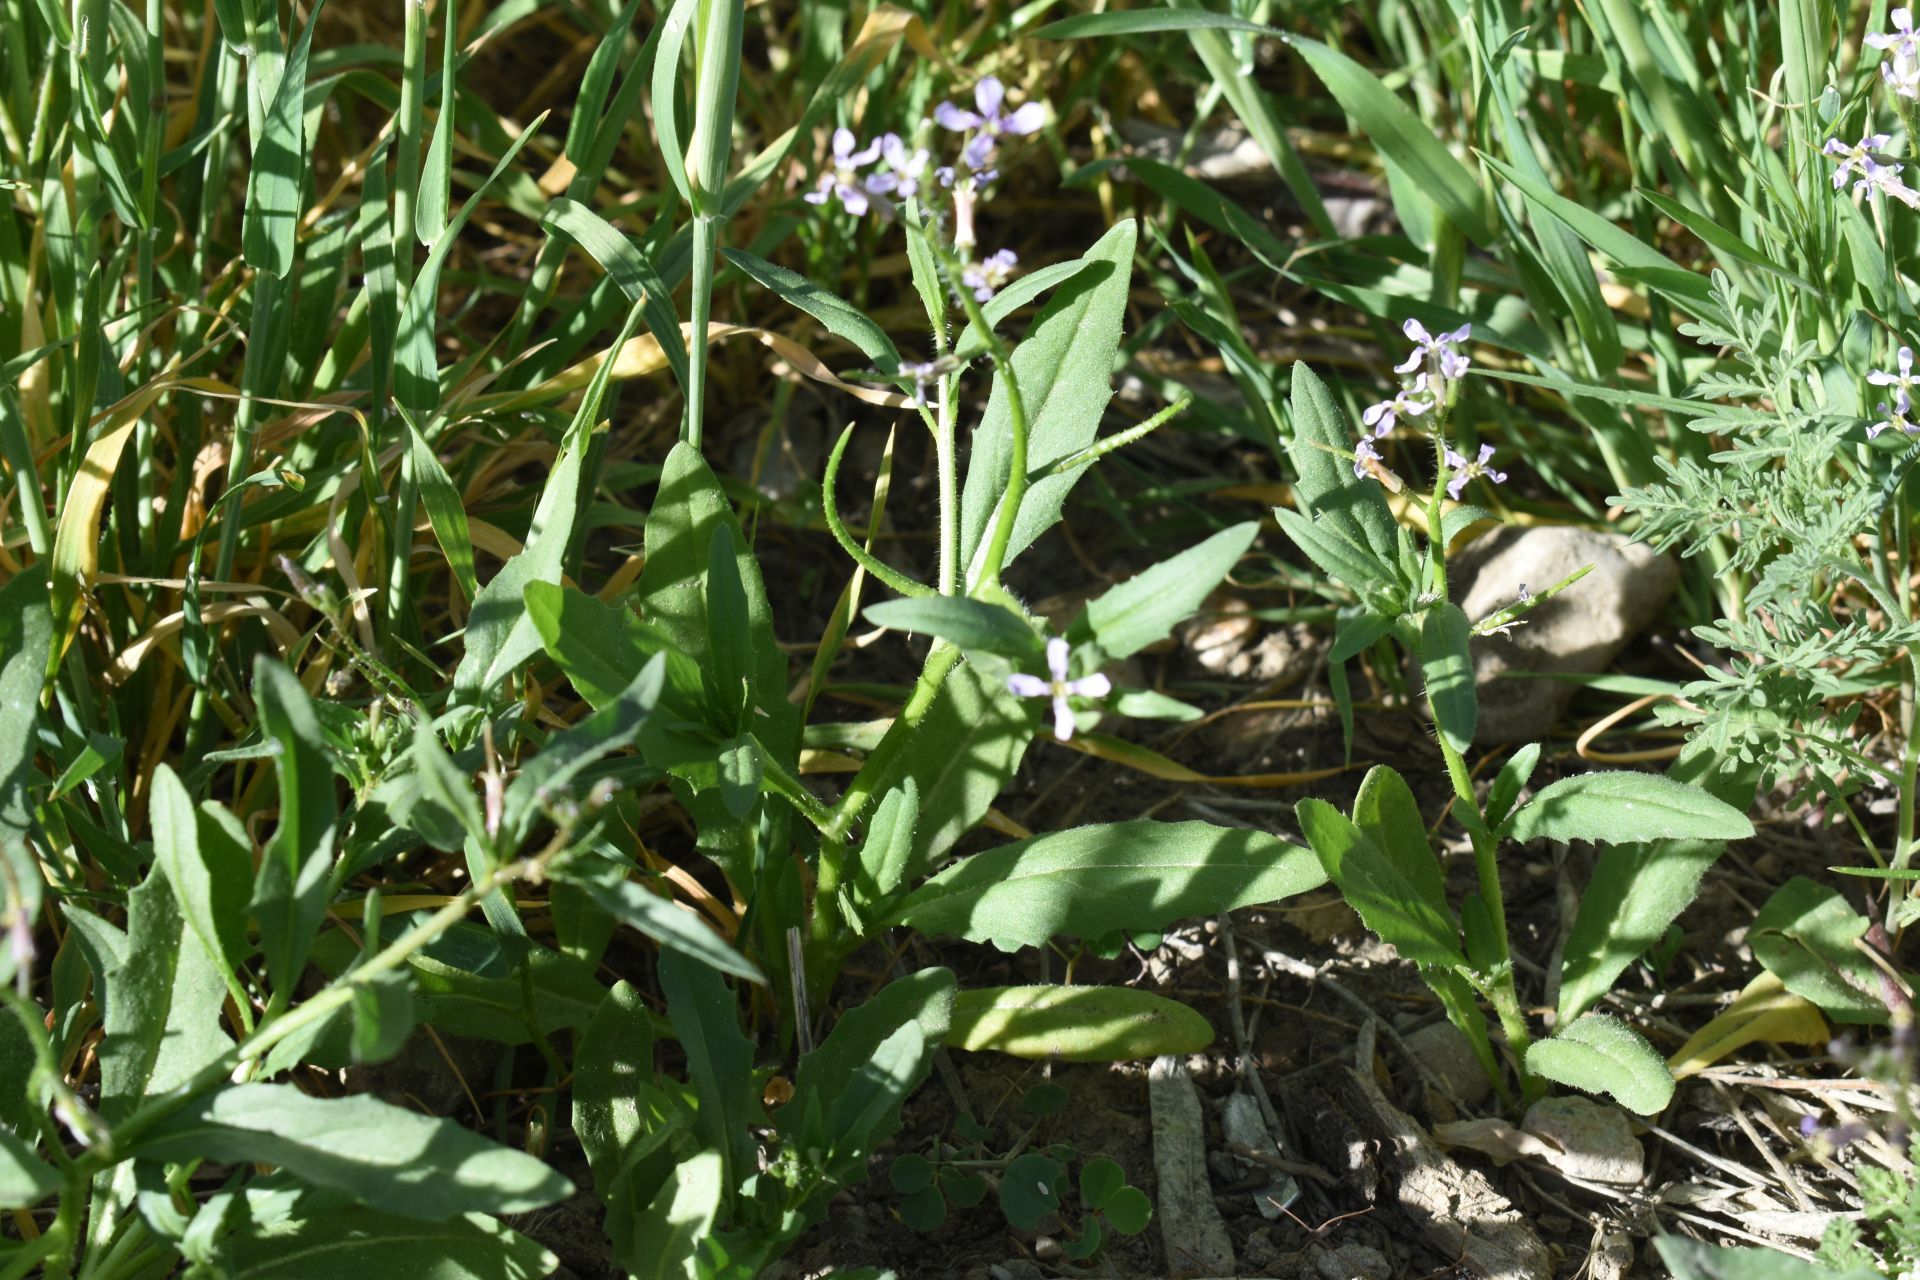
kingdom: Plantae
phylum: Tracheophyta
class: Magnoliopsida
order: Brassicales
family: Brassicaceae
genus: Chorispora
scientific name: Chorispora tenella
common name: Crossflower
